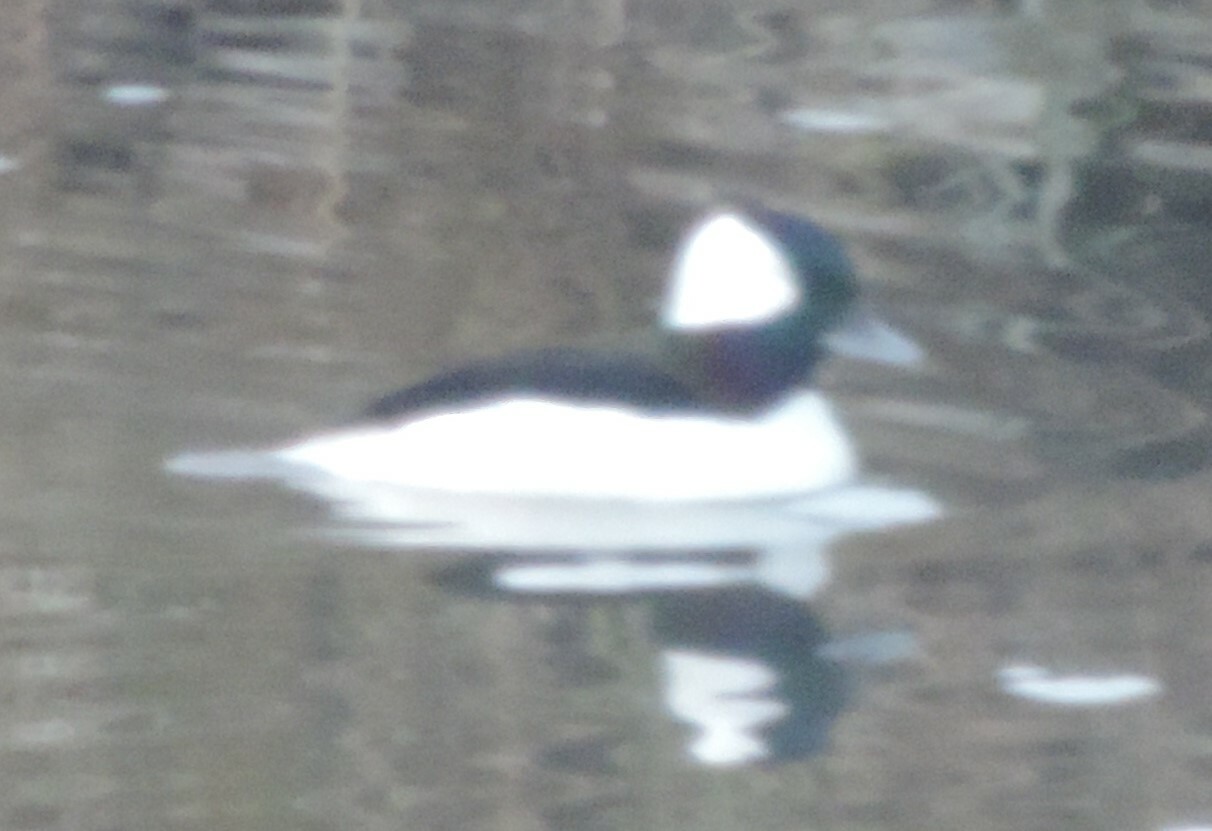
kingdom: Animalia
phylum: Chordata
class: Aves
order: Anseriformes
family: Anatidae
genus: Bucephala
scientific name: Bucephala albeola
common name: Bufflehead
